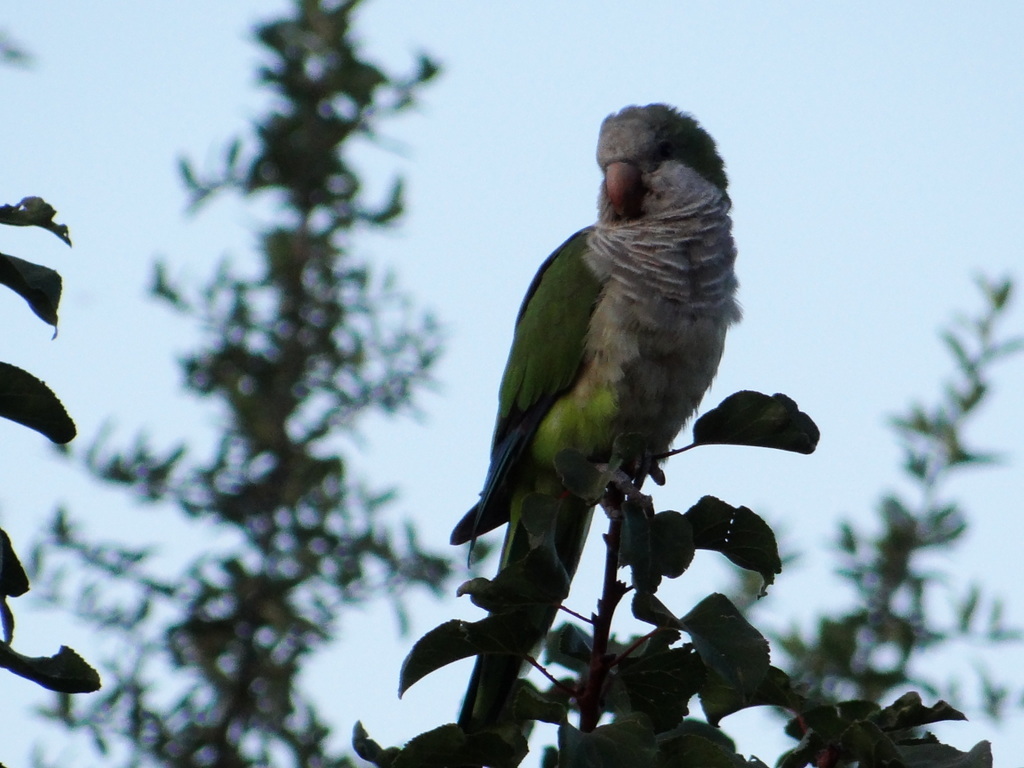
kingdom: Animalia
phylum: Chordata
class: Aves
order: Psittaciformes
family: Psittacidae
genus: Myiopsitta
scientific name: Myiopsitta monachus
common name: Monk parakeet
